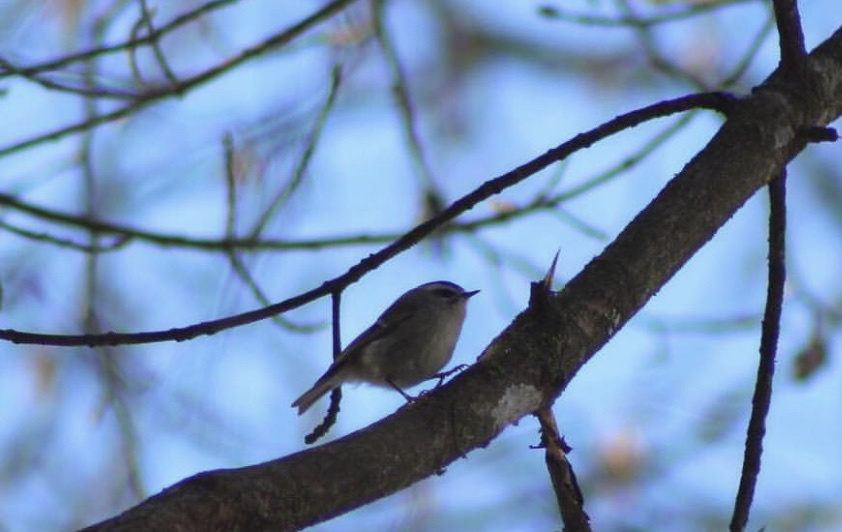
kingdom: Animalia
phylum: Chordata
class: Aves
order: Passeriformes
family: Regulidae
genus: Regulus
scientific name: Regulus satrapa
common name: Golden-crowned kinglet
